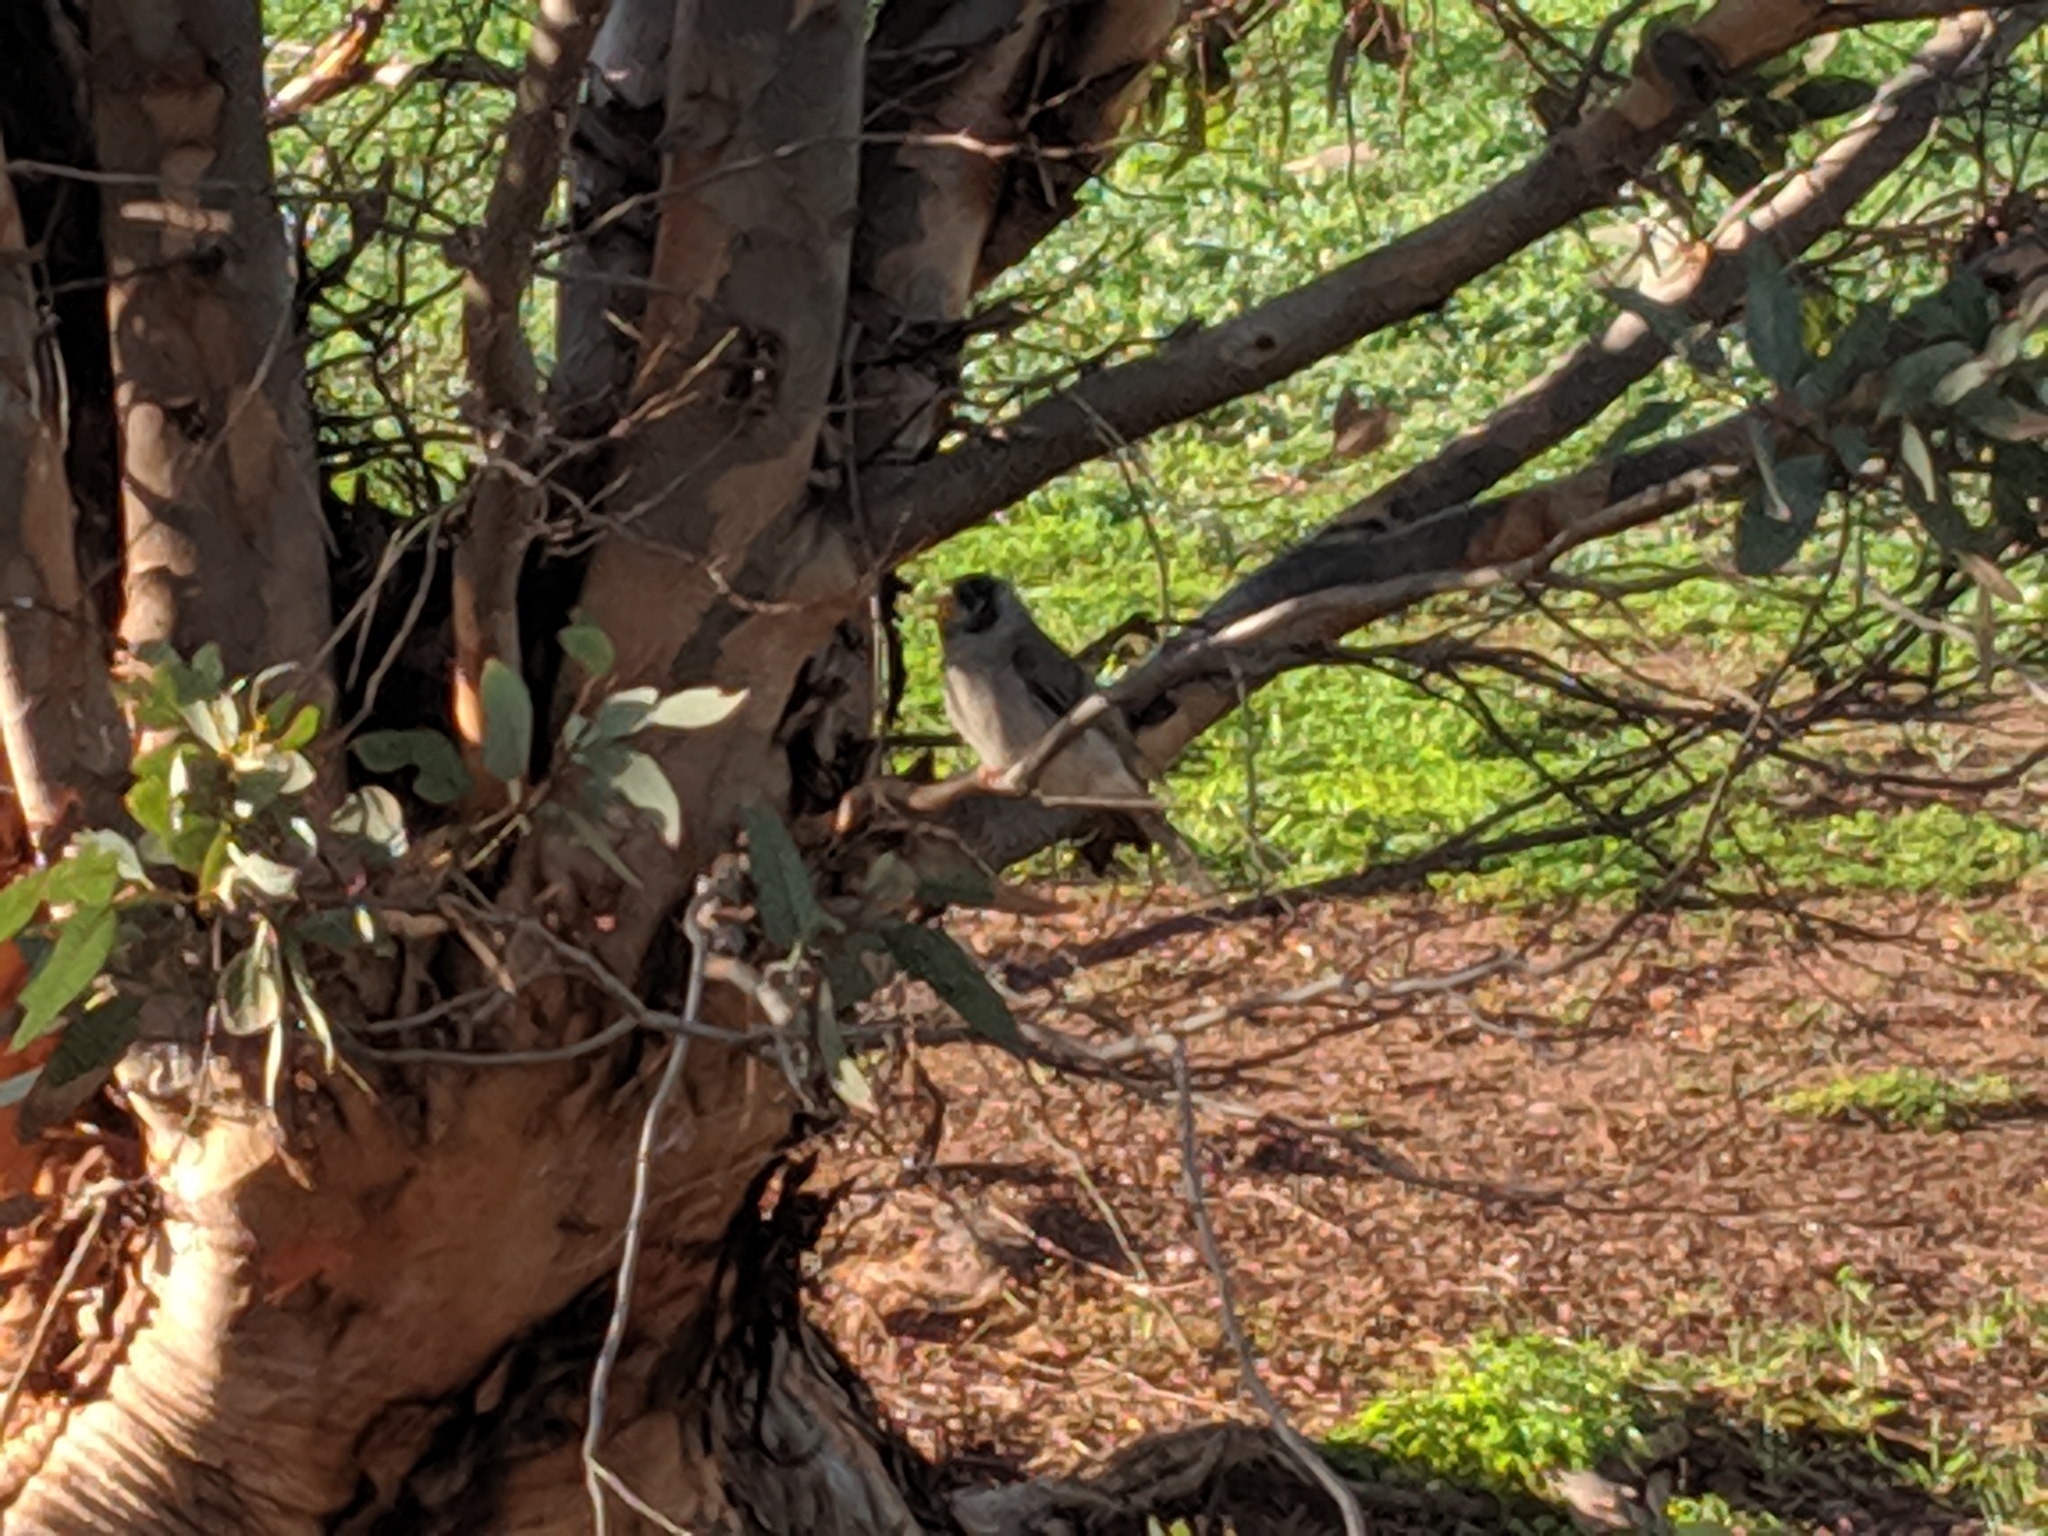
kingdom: Animalia
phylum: Chordata
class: Aves
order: Passeriformes
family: Meliphagidae
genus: Manorina
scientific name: Manorina melanocephala
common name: Noisy miner
